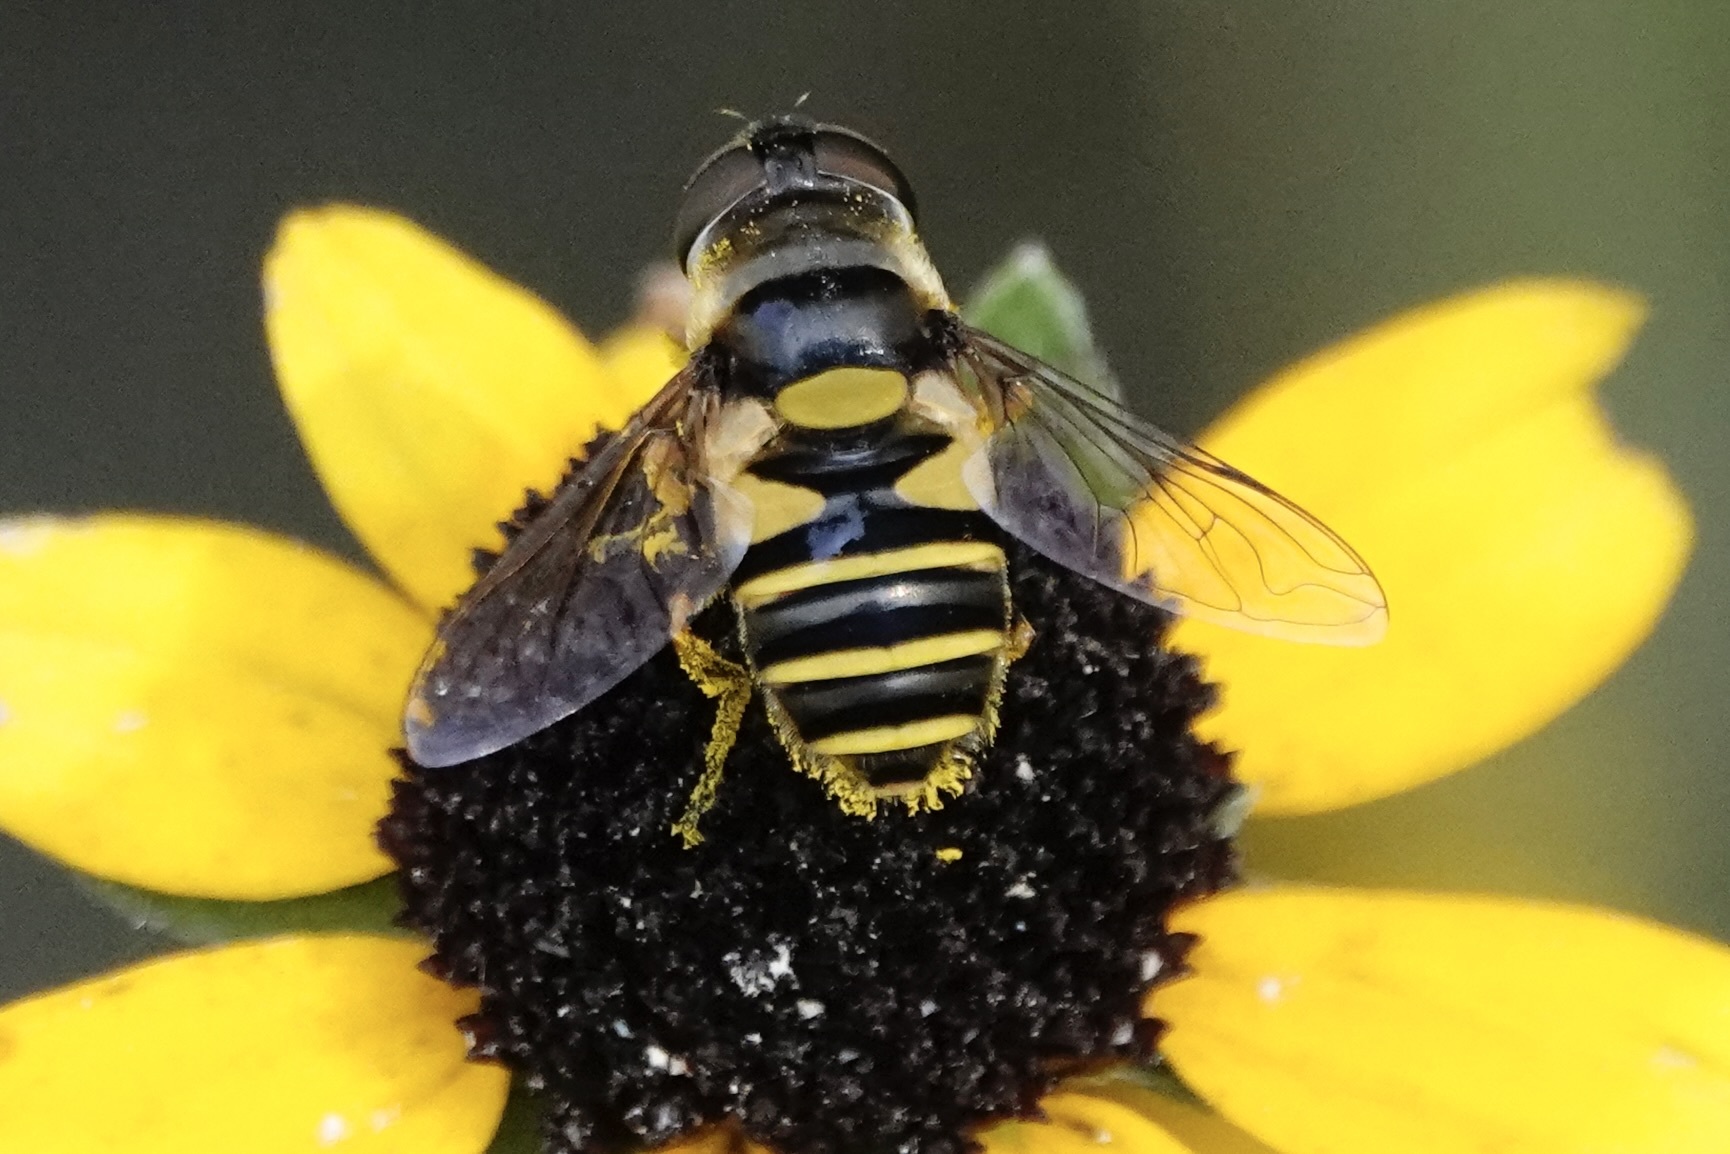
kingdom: Animalia
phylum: Arthropoda
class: Insecta
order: Diptera
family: Syrphidae
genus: Eristalis
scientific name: Eristalis transversa
